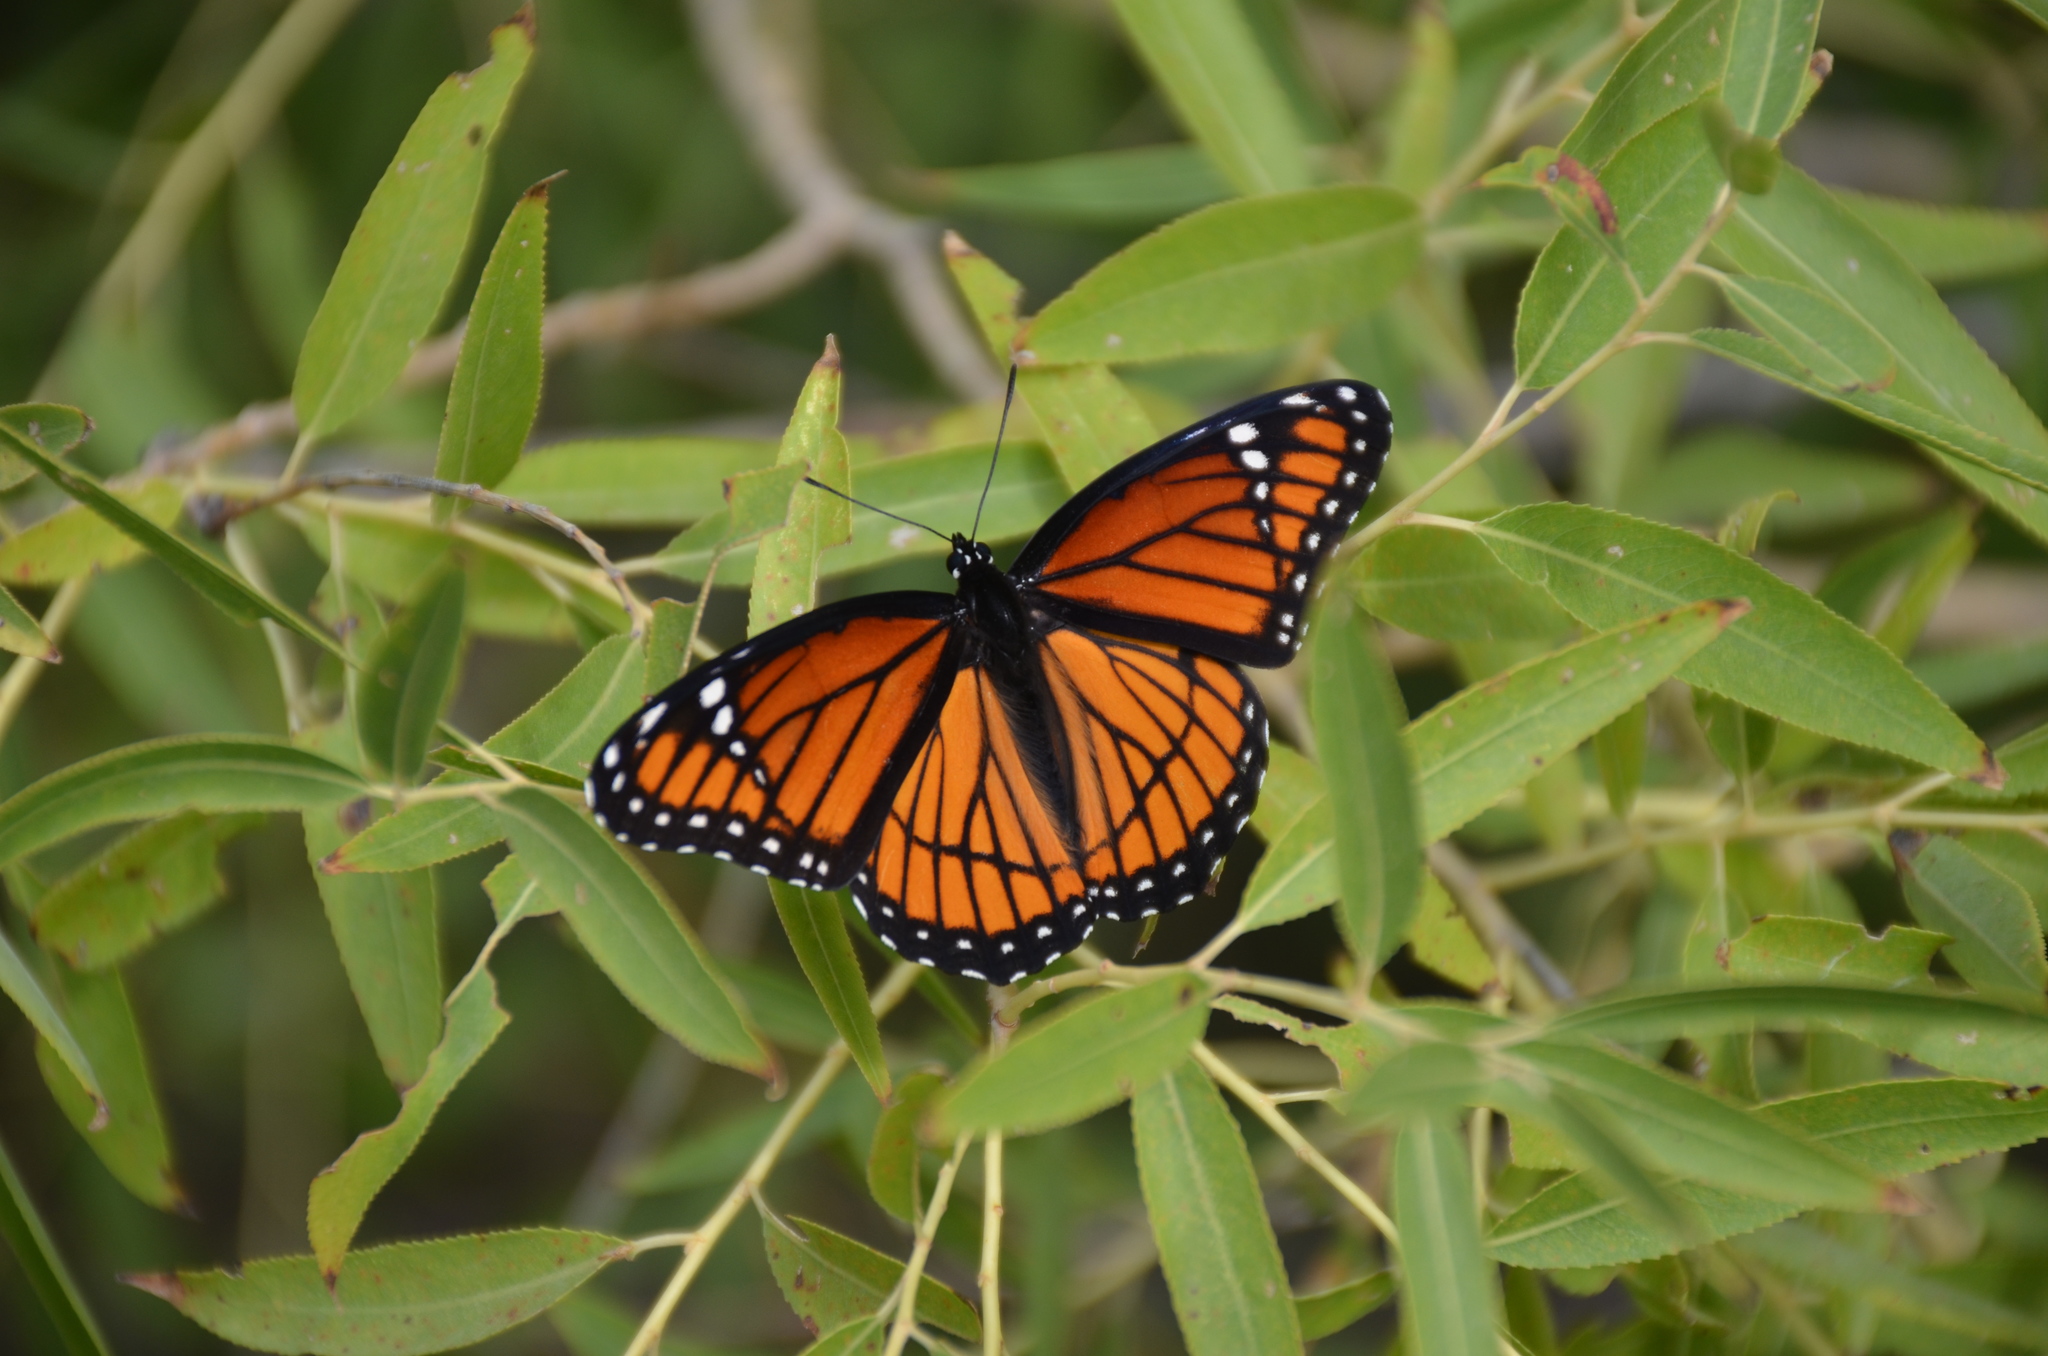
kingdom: Animalia
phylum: Arthropoda
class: Insecta
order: Lepidoptera
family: Nymphalidae
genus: Limenitis
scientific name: Limenitis archippus
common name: Viceroy
